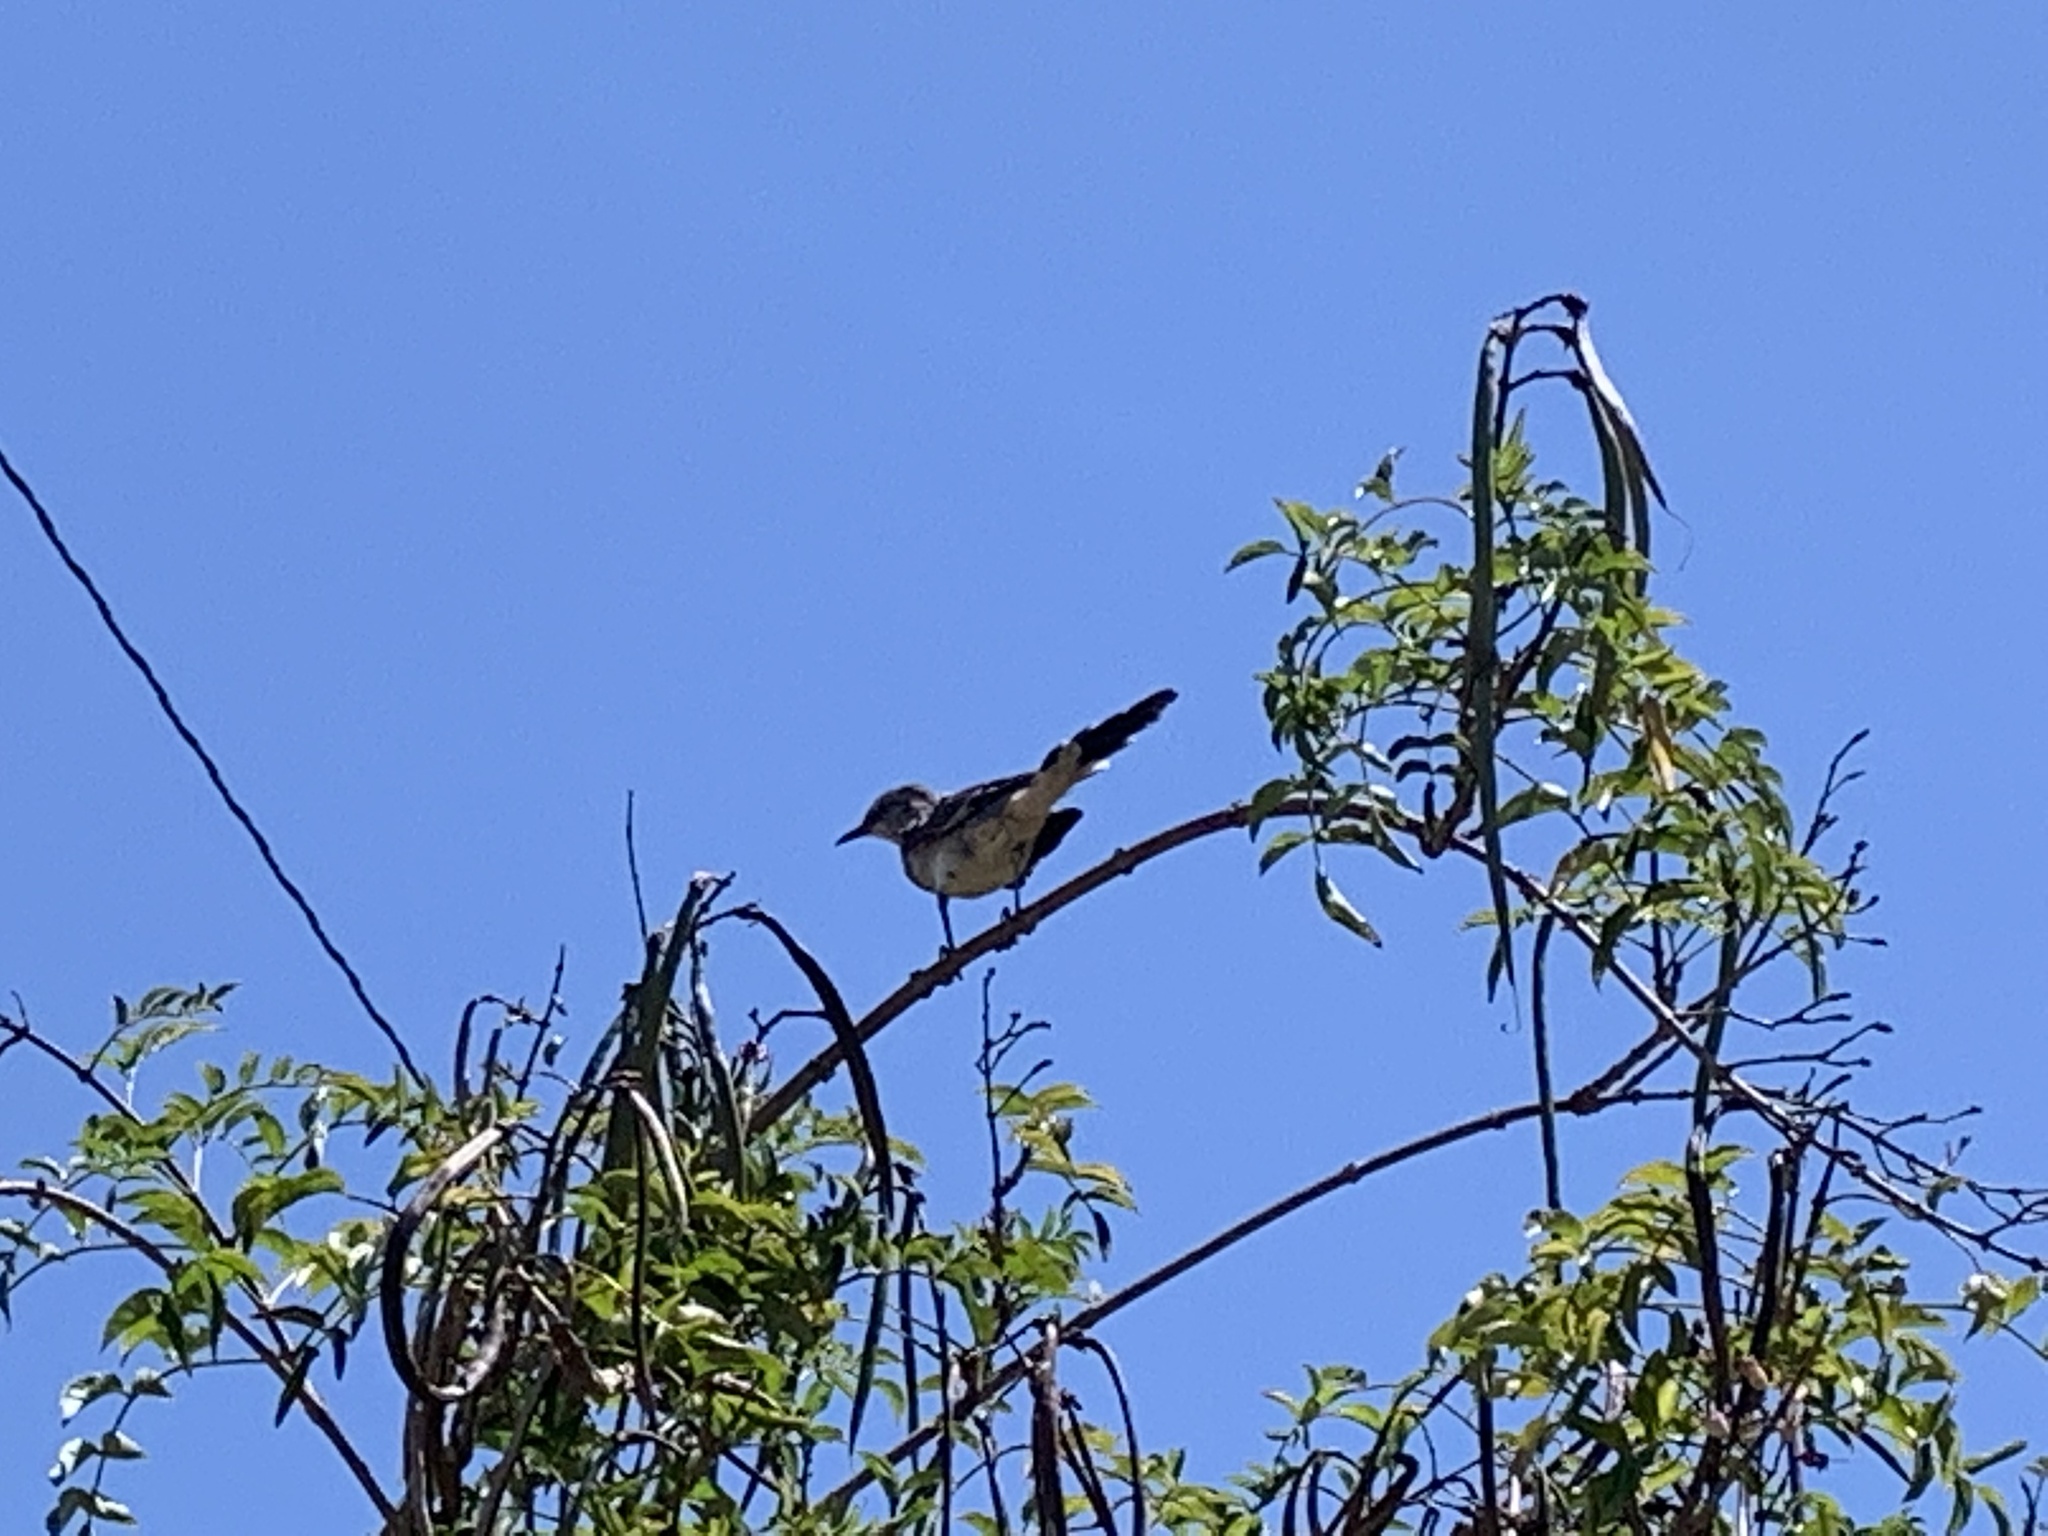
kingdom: Animalia
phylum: Chordata
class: Aves
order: Passeriformes
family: Mimidae
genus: Mimus
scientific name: Mimus polyglottos
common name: Northern mockingbird
